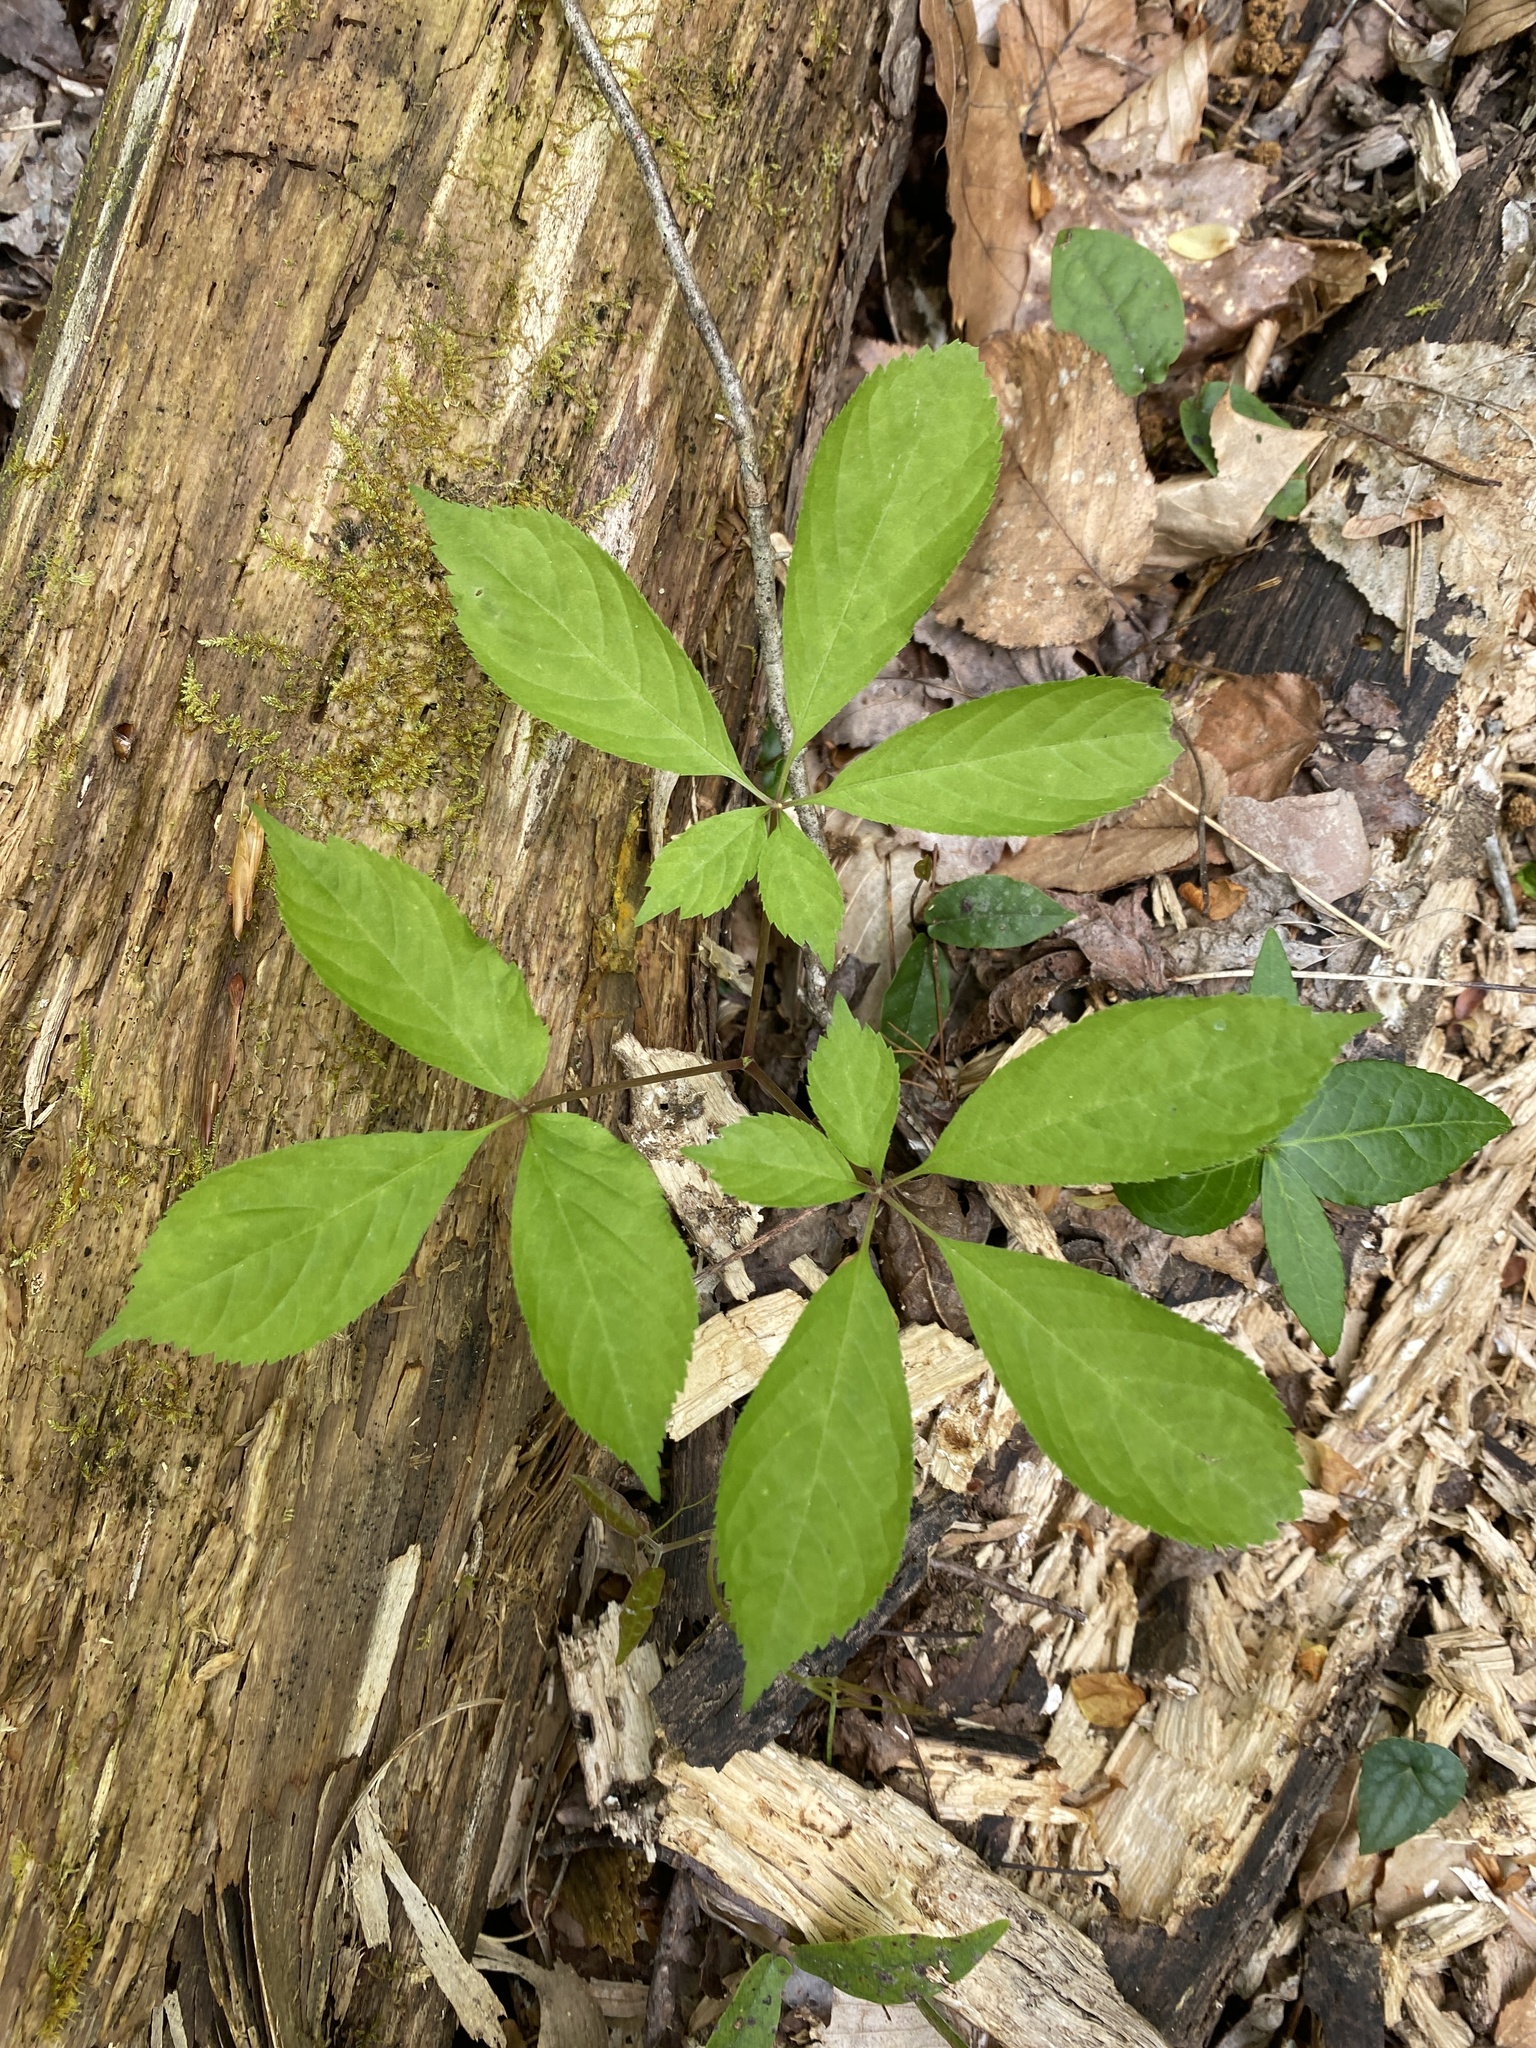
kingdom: Plantae
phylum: Tracheophyta
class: Magnoliopsida
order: Apiales
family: Araliaceae
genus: Panax
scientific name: Panax quinquefolius
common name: American ginseng
